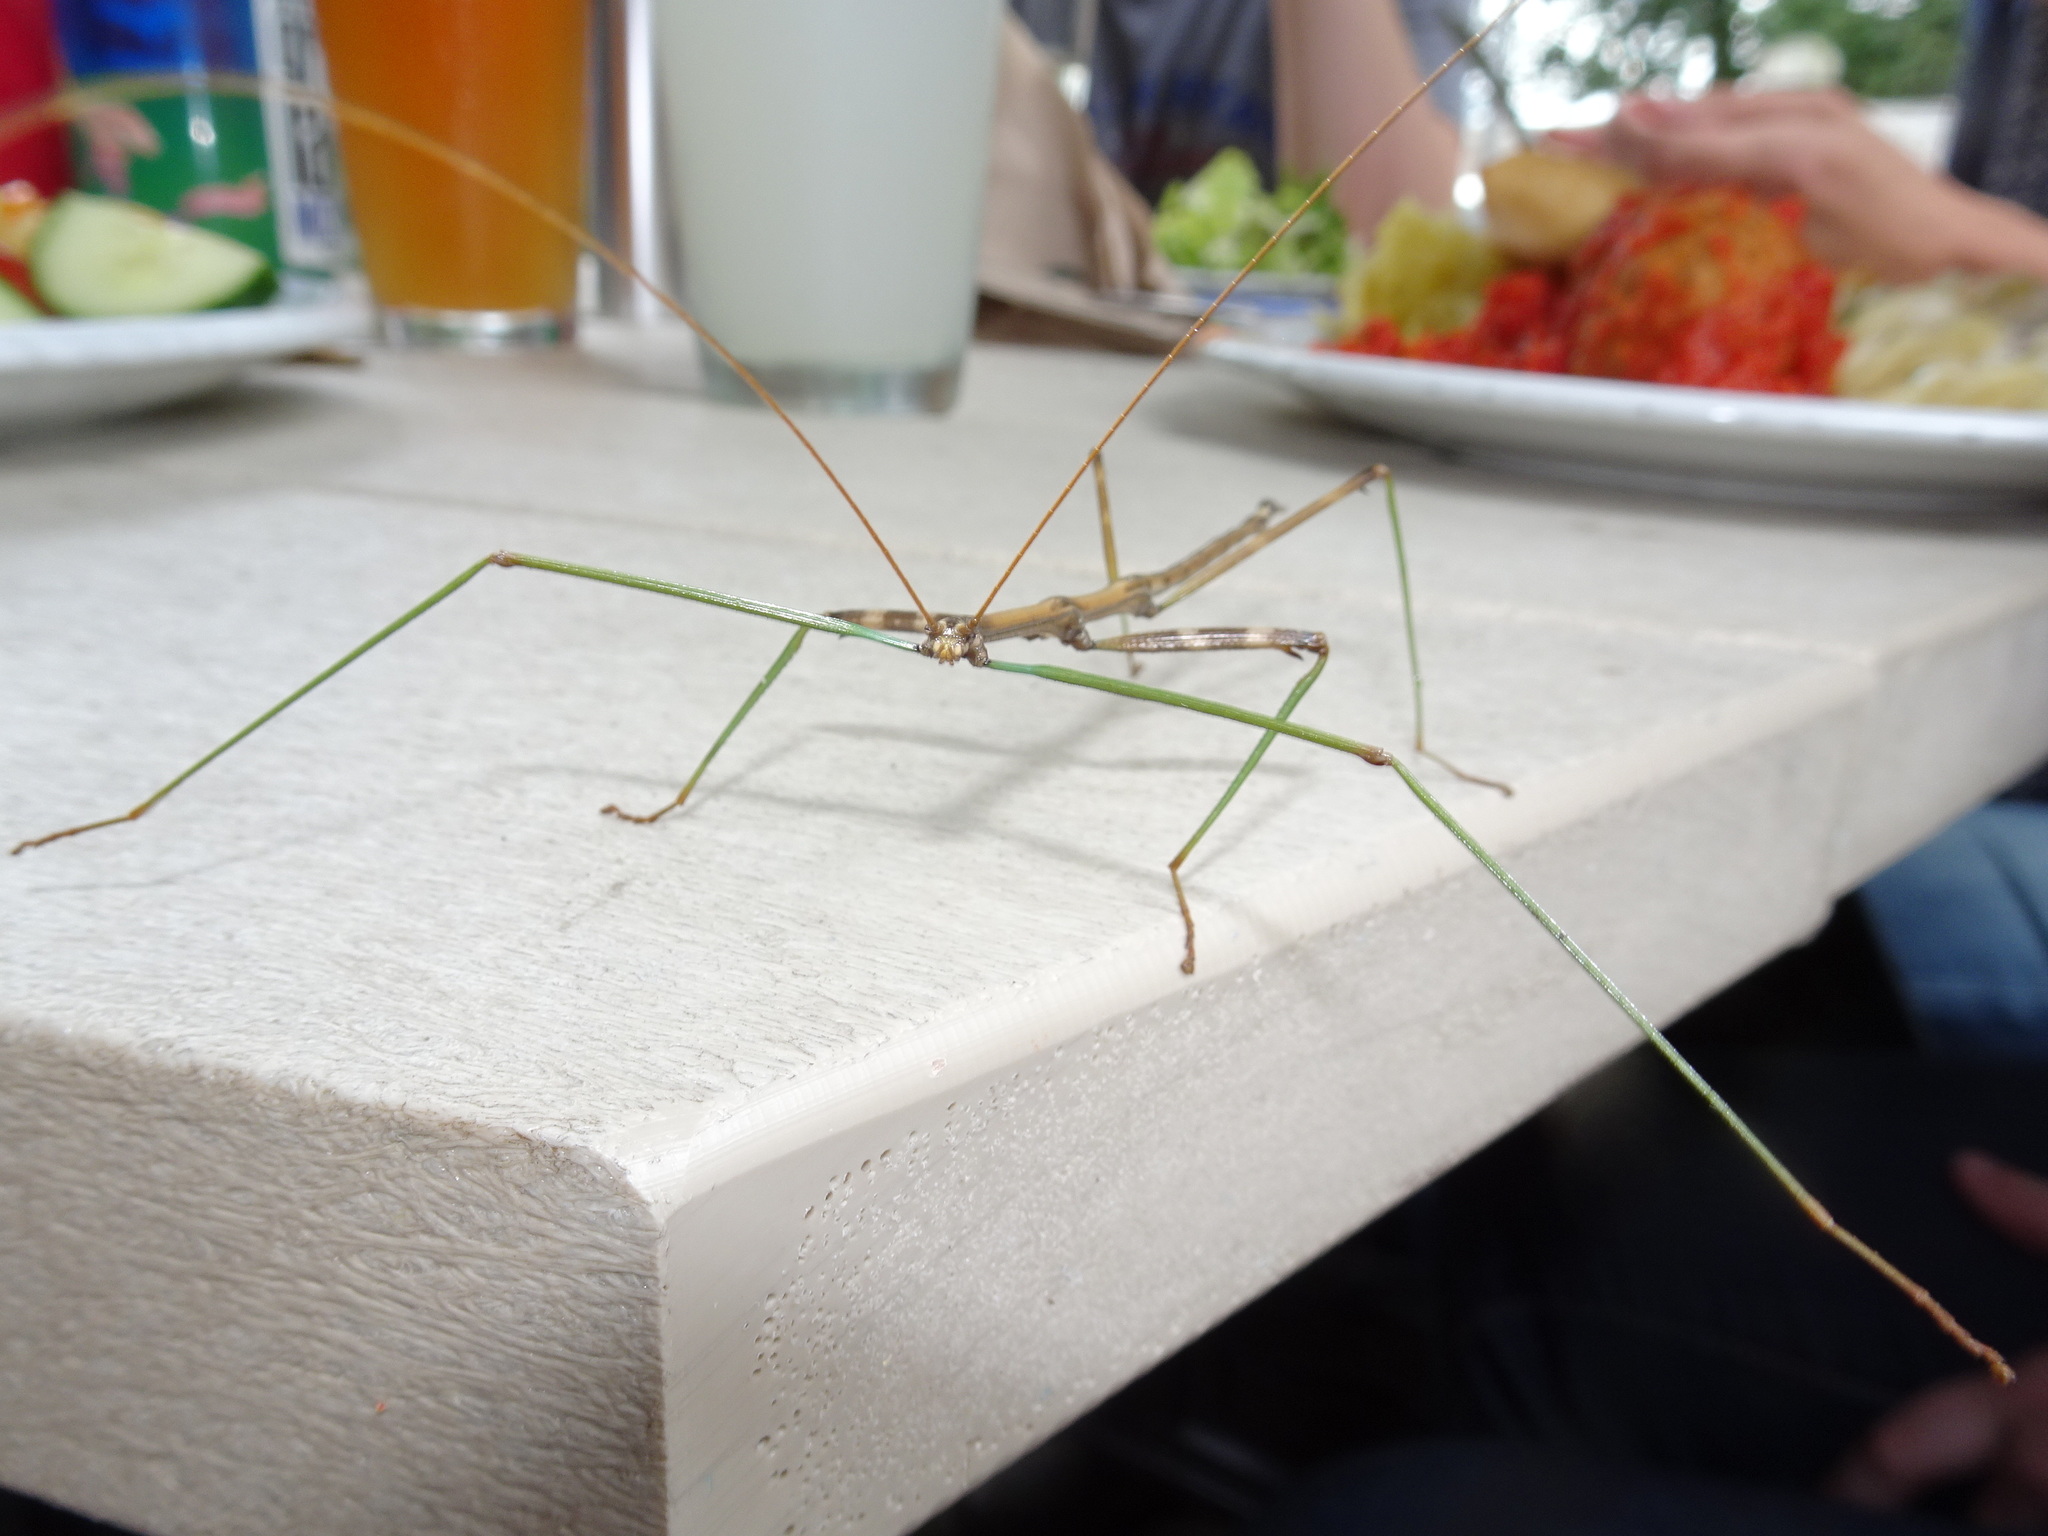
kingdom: Animalia
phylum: Arthropoda
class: Insecta
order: Phasmida
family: Diapheromeridae
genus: Diapheromera
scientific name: Diapheromera femorata
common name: Common american walkingstick
